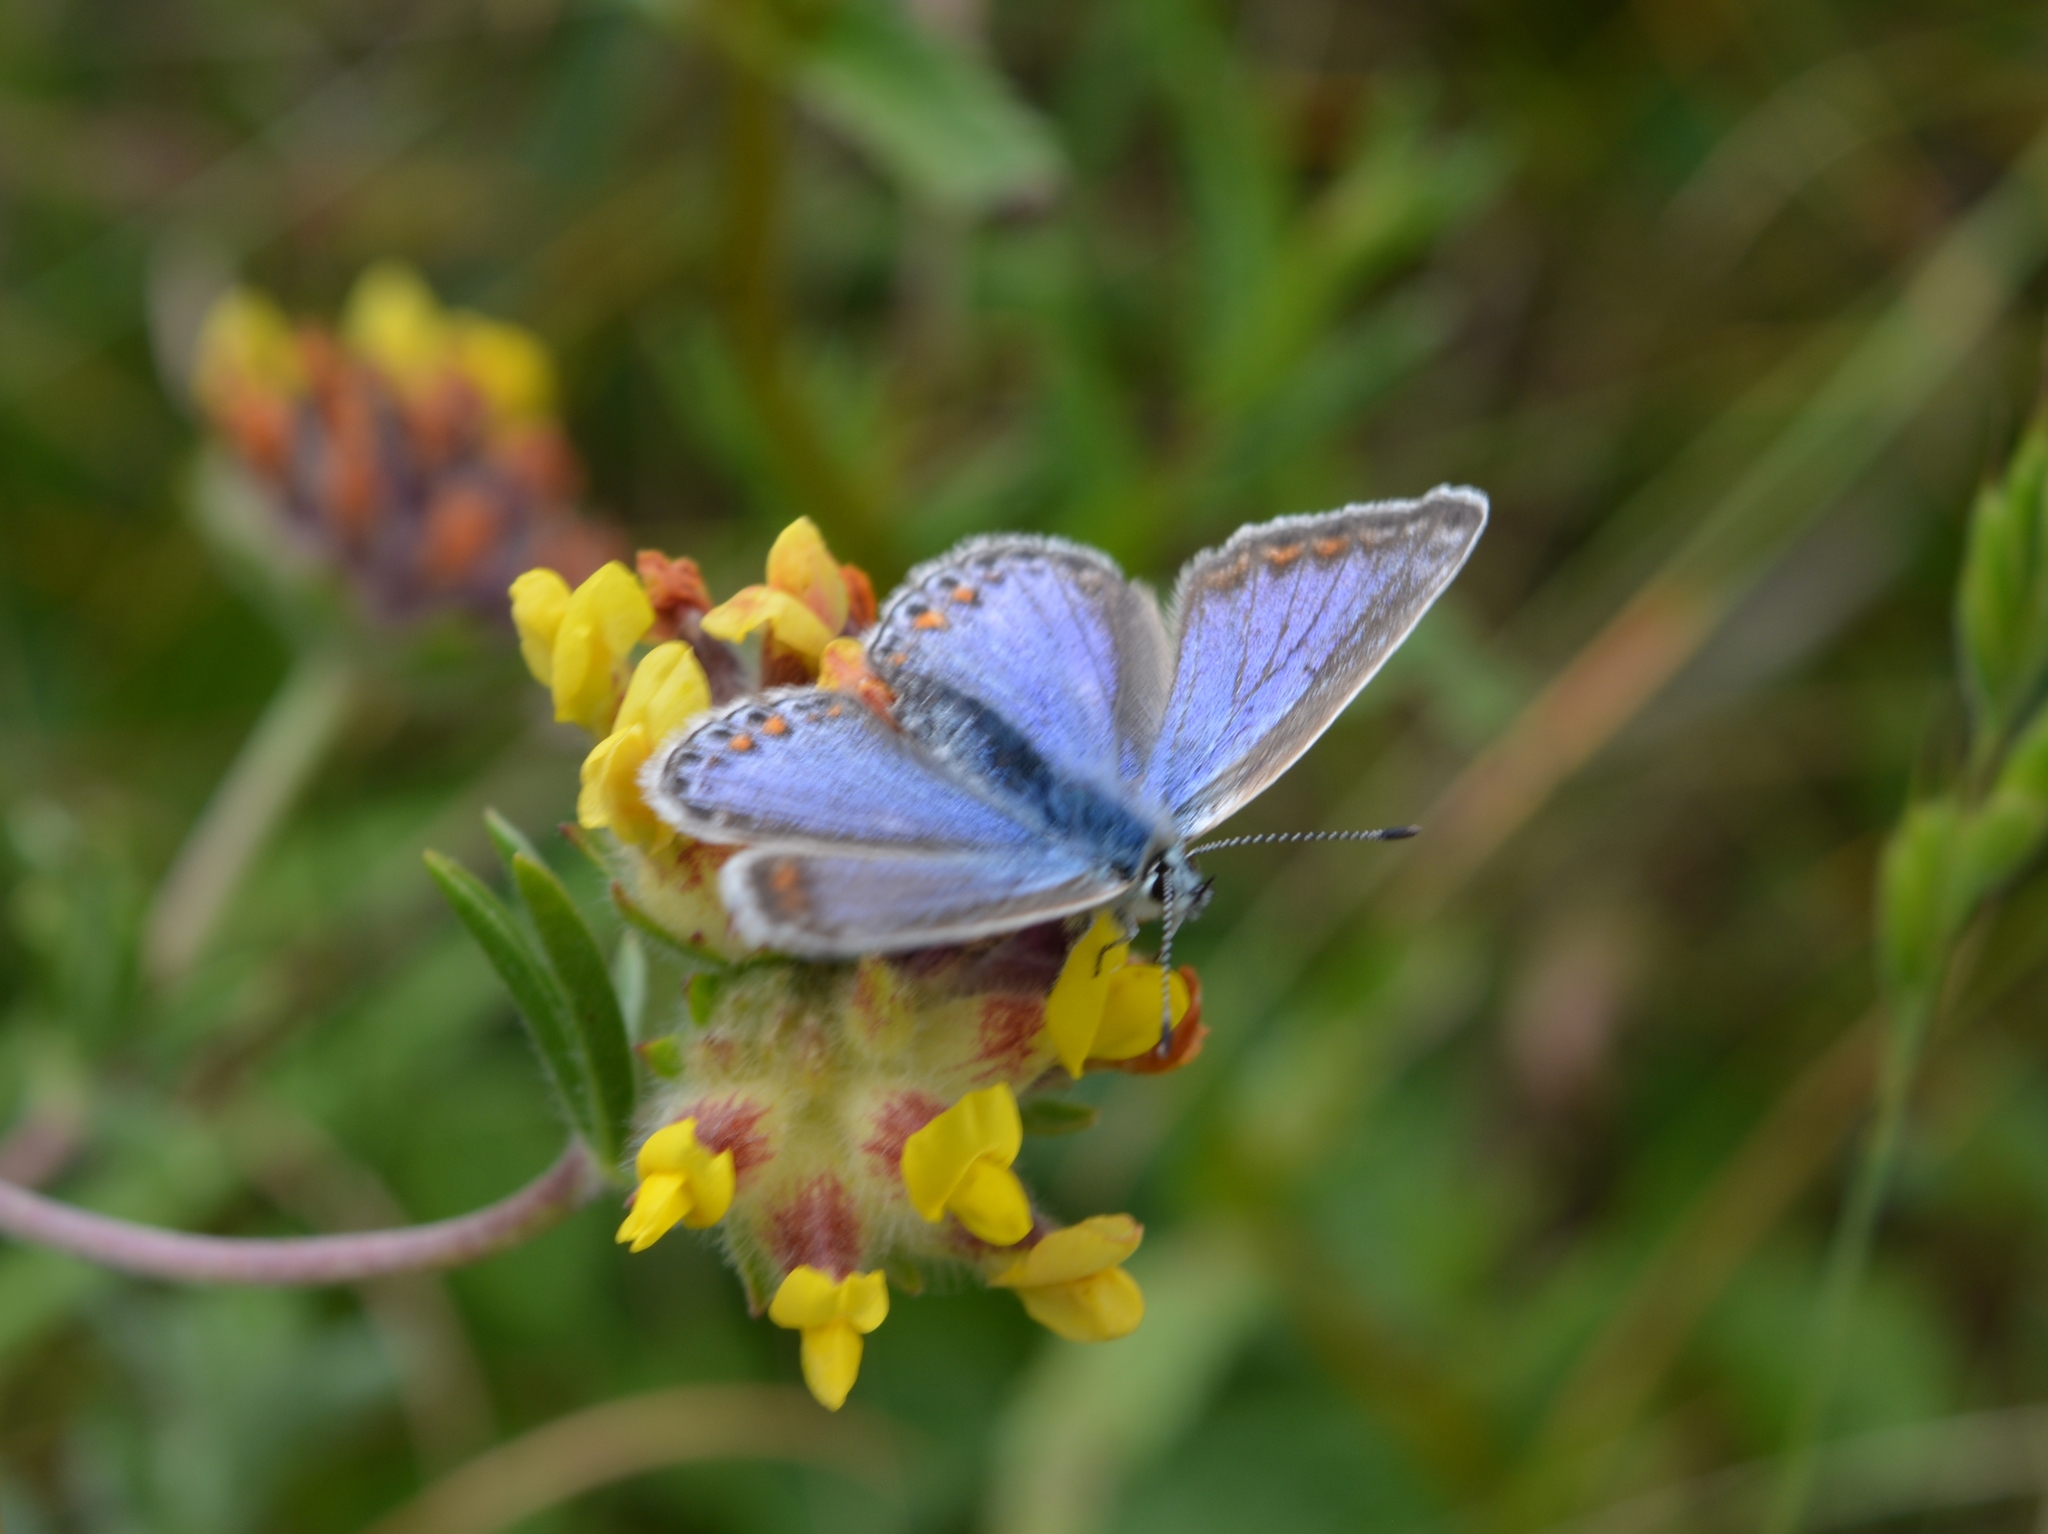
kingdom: Animalia
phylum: Arthropoda
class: Insecta
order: Lepidoptera
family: Lycaenidae
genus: Polyommatus
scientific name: Polyommatus icarus
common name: Common blue
